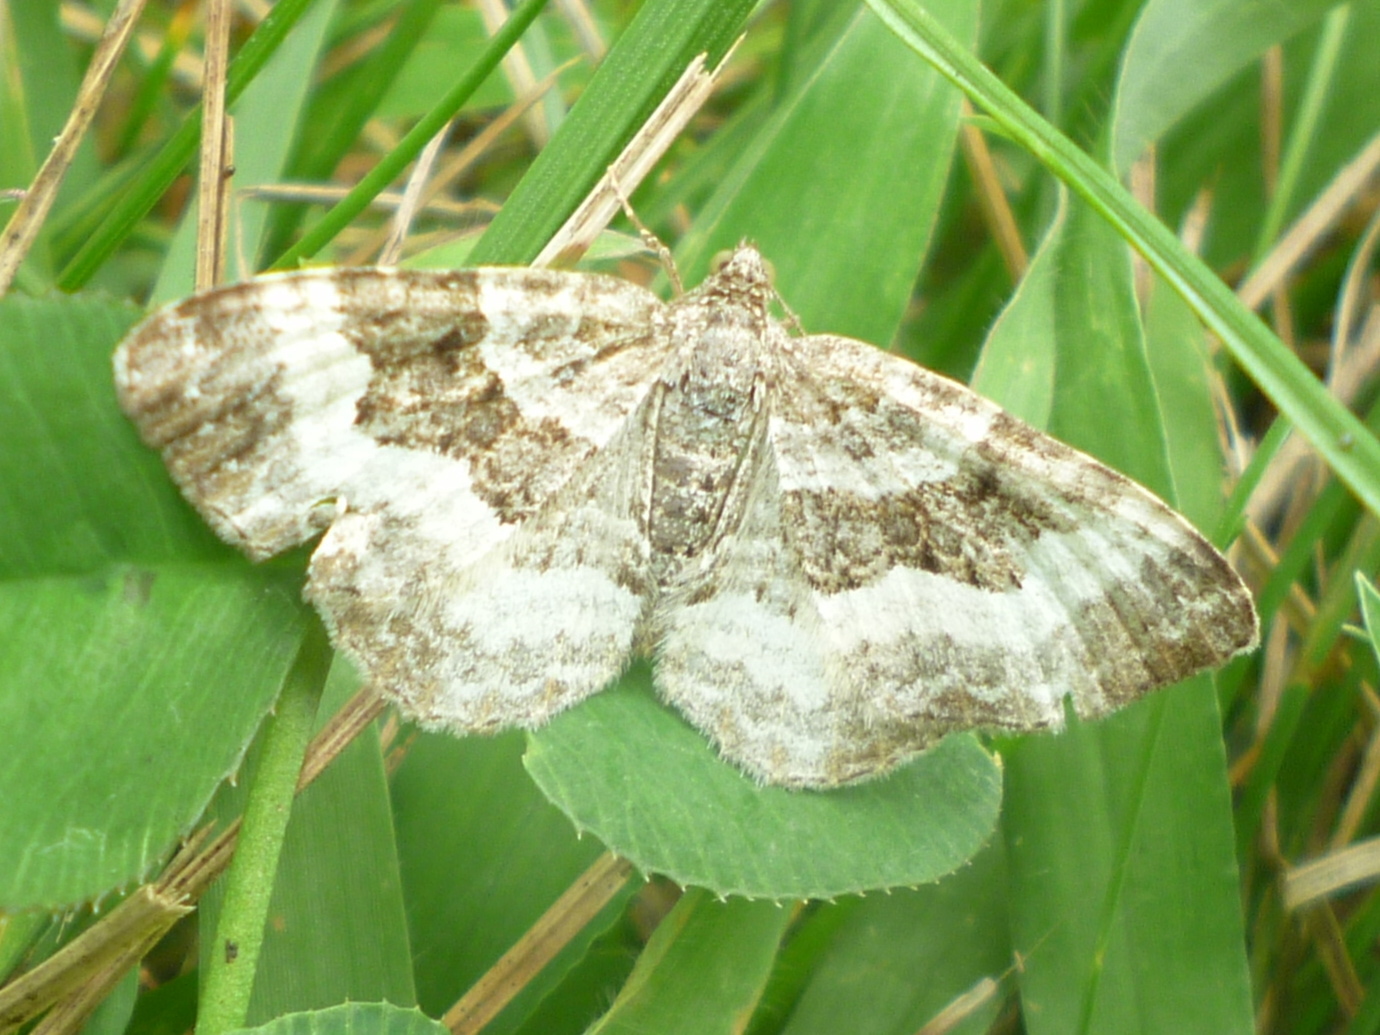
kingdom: Animalia
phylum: Arthropoda
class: Insecta
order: Lepidoptera
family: Geometridae
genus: Epirrhoe
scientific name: Epirrhoe alternata
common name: Common carpet
